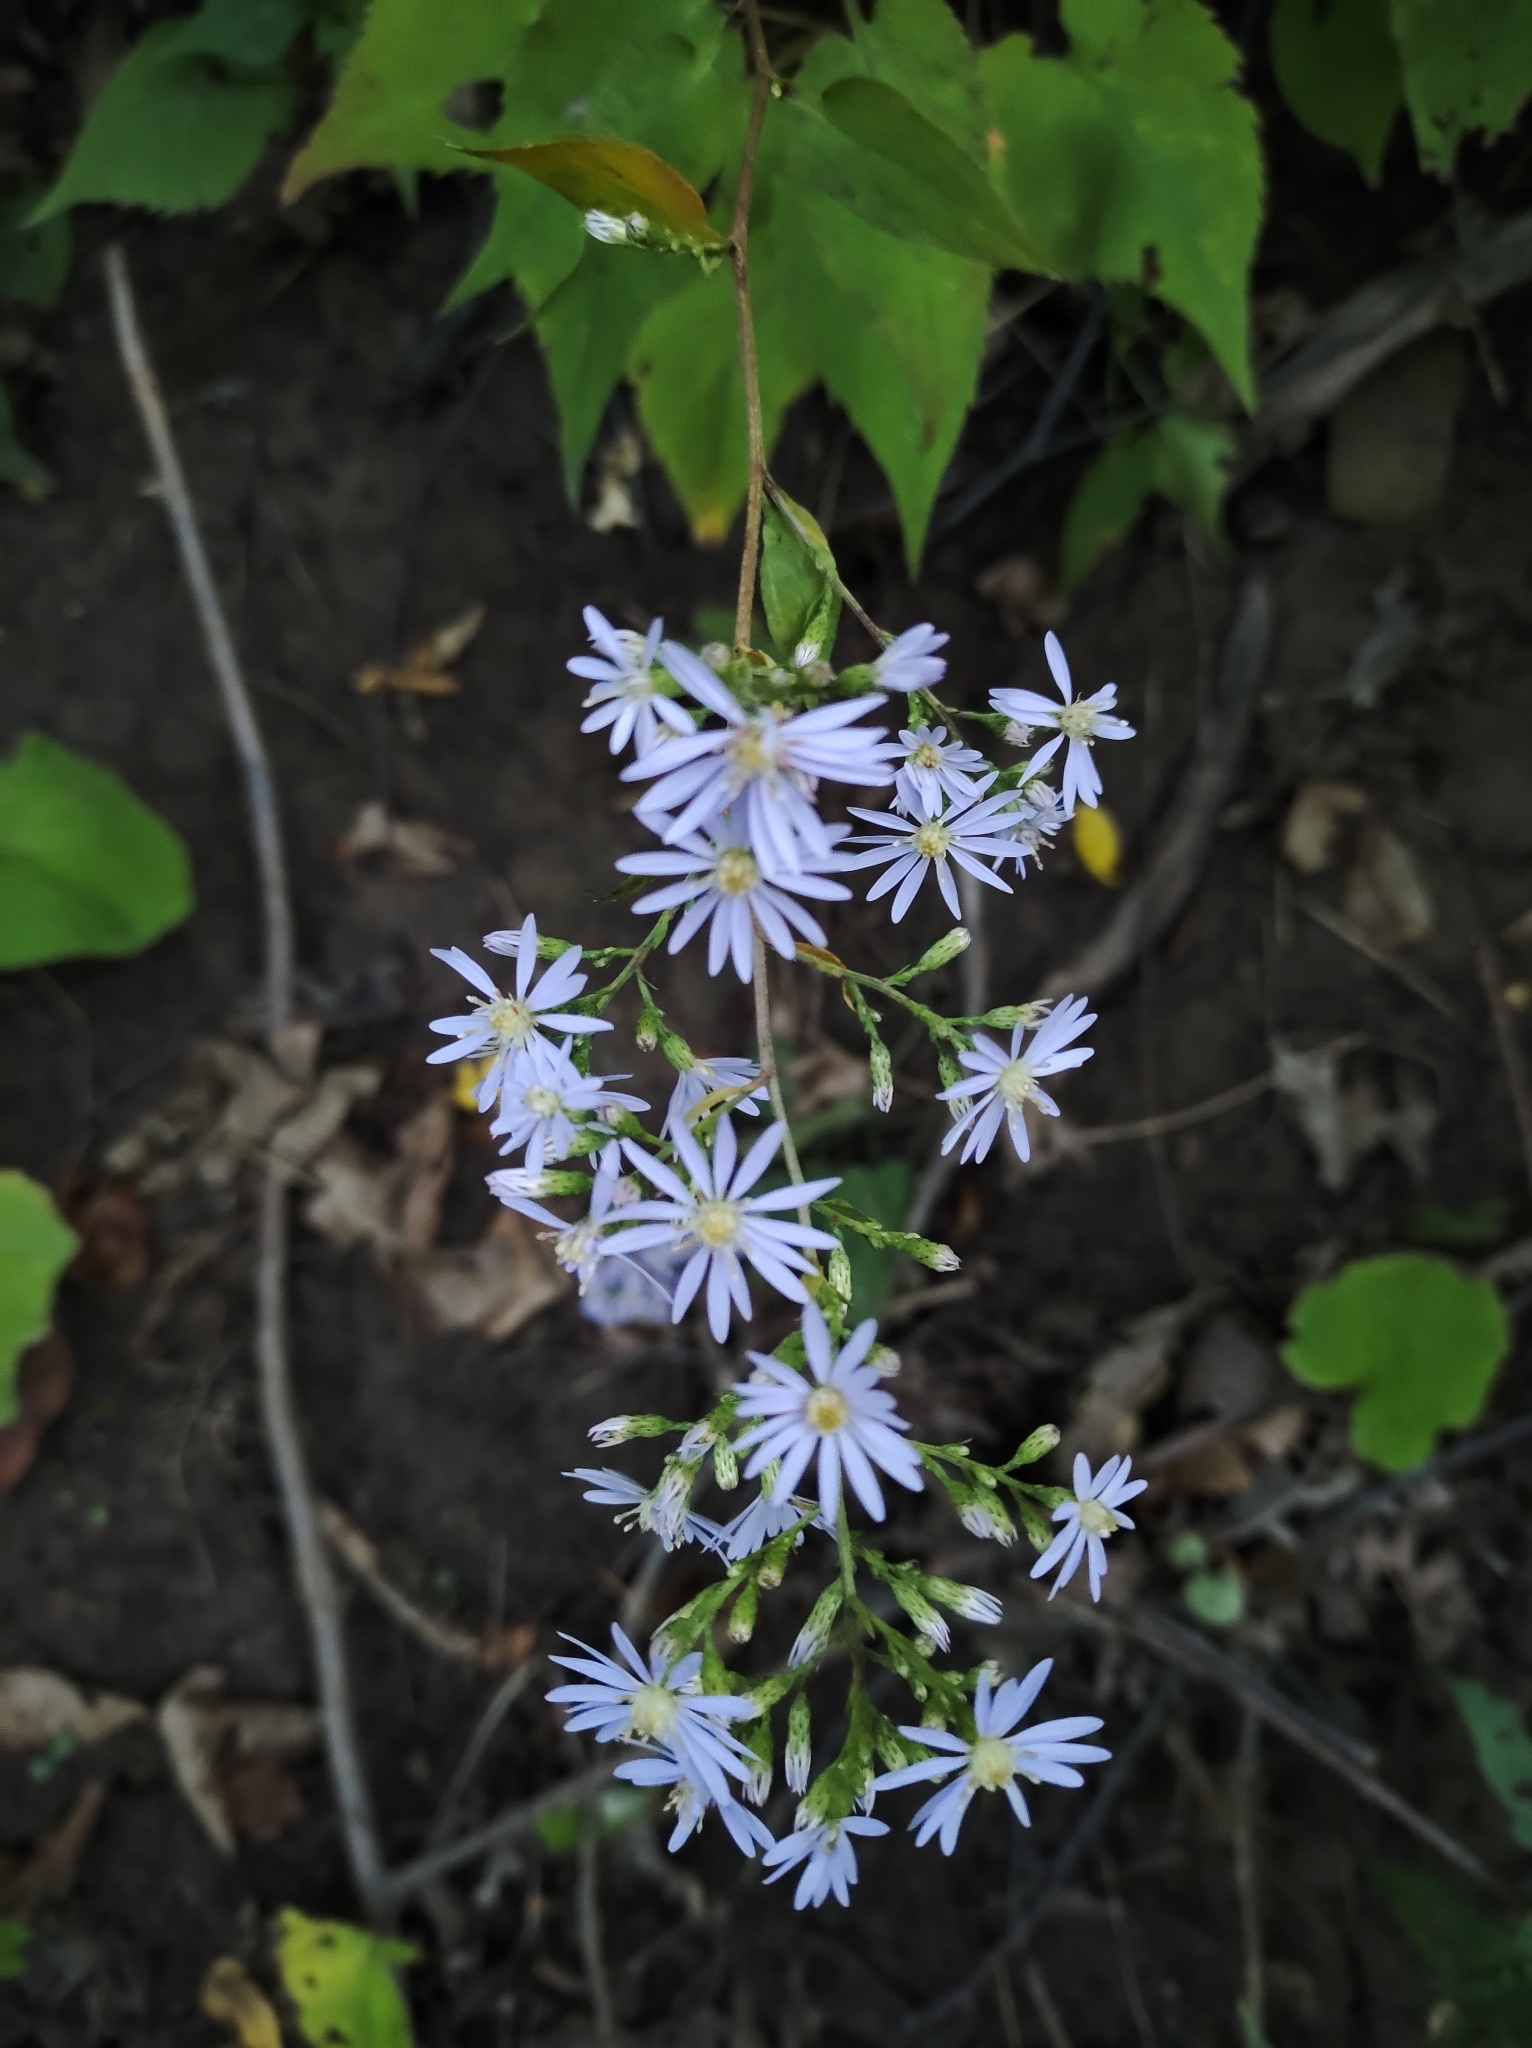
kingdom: Plantae
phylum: Tracheophyta
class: Magnoliopsida
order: Asterales
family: Asteraceae
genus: Symphyotrichum
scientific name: Symphyotrichum cordifolium
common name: Beeweed
